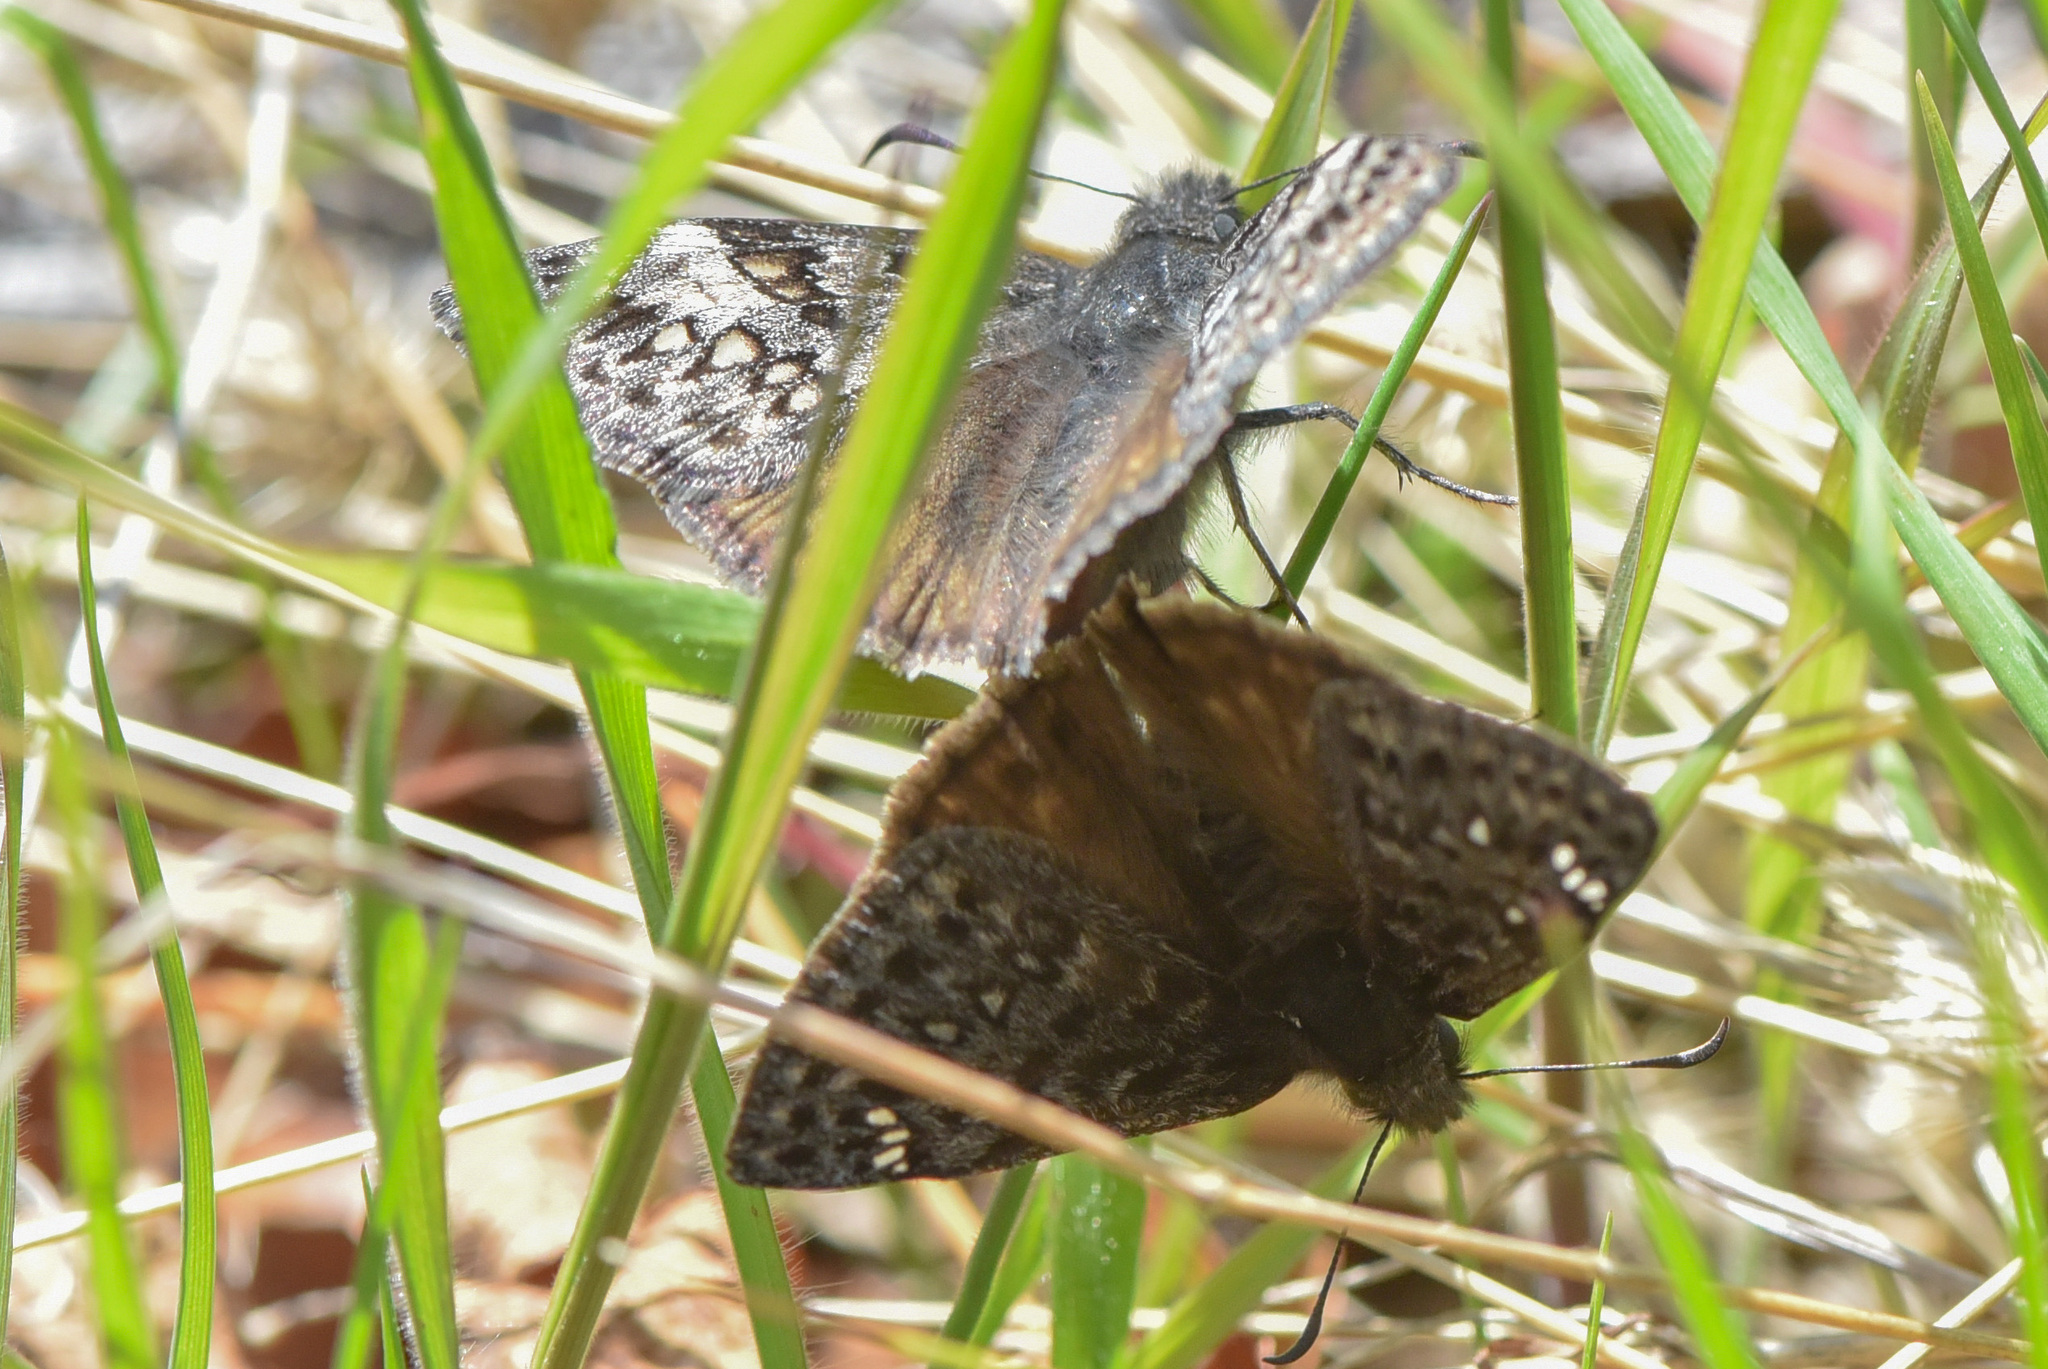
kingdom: Animalia
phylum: Arthropoda
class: Insecta
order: Lepidoptera
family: Hesperiidae
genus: Erynnis
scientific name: Erynnis propertius
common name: Propertius duskywing
